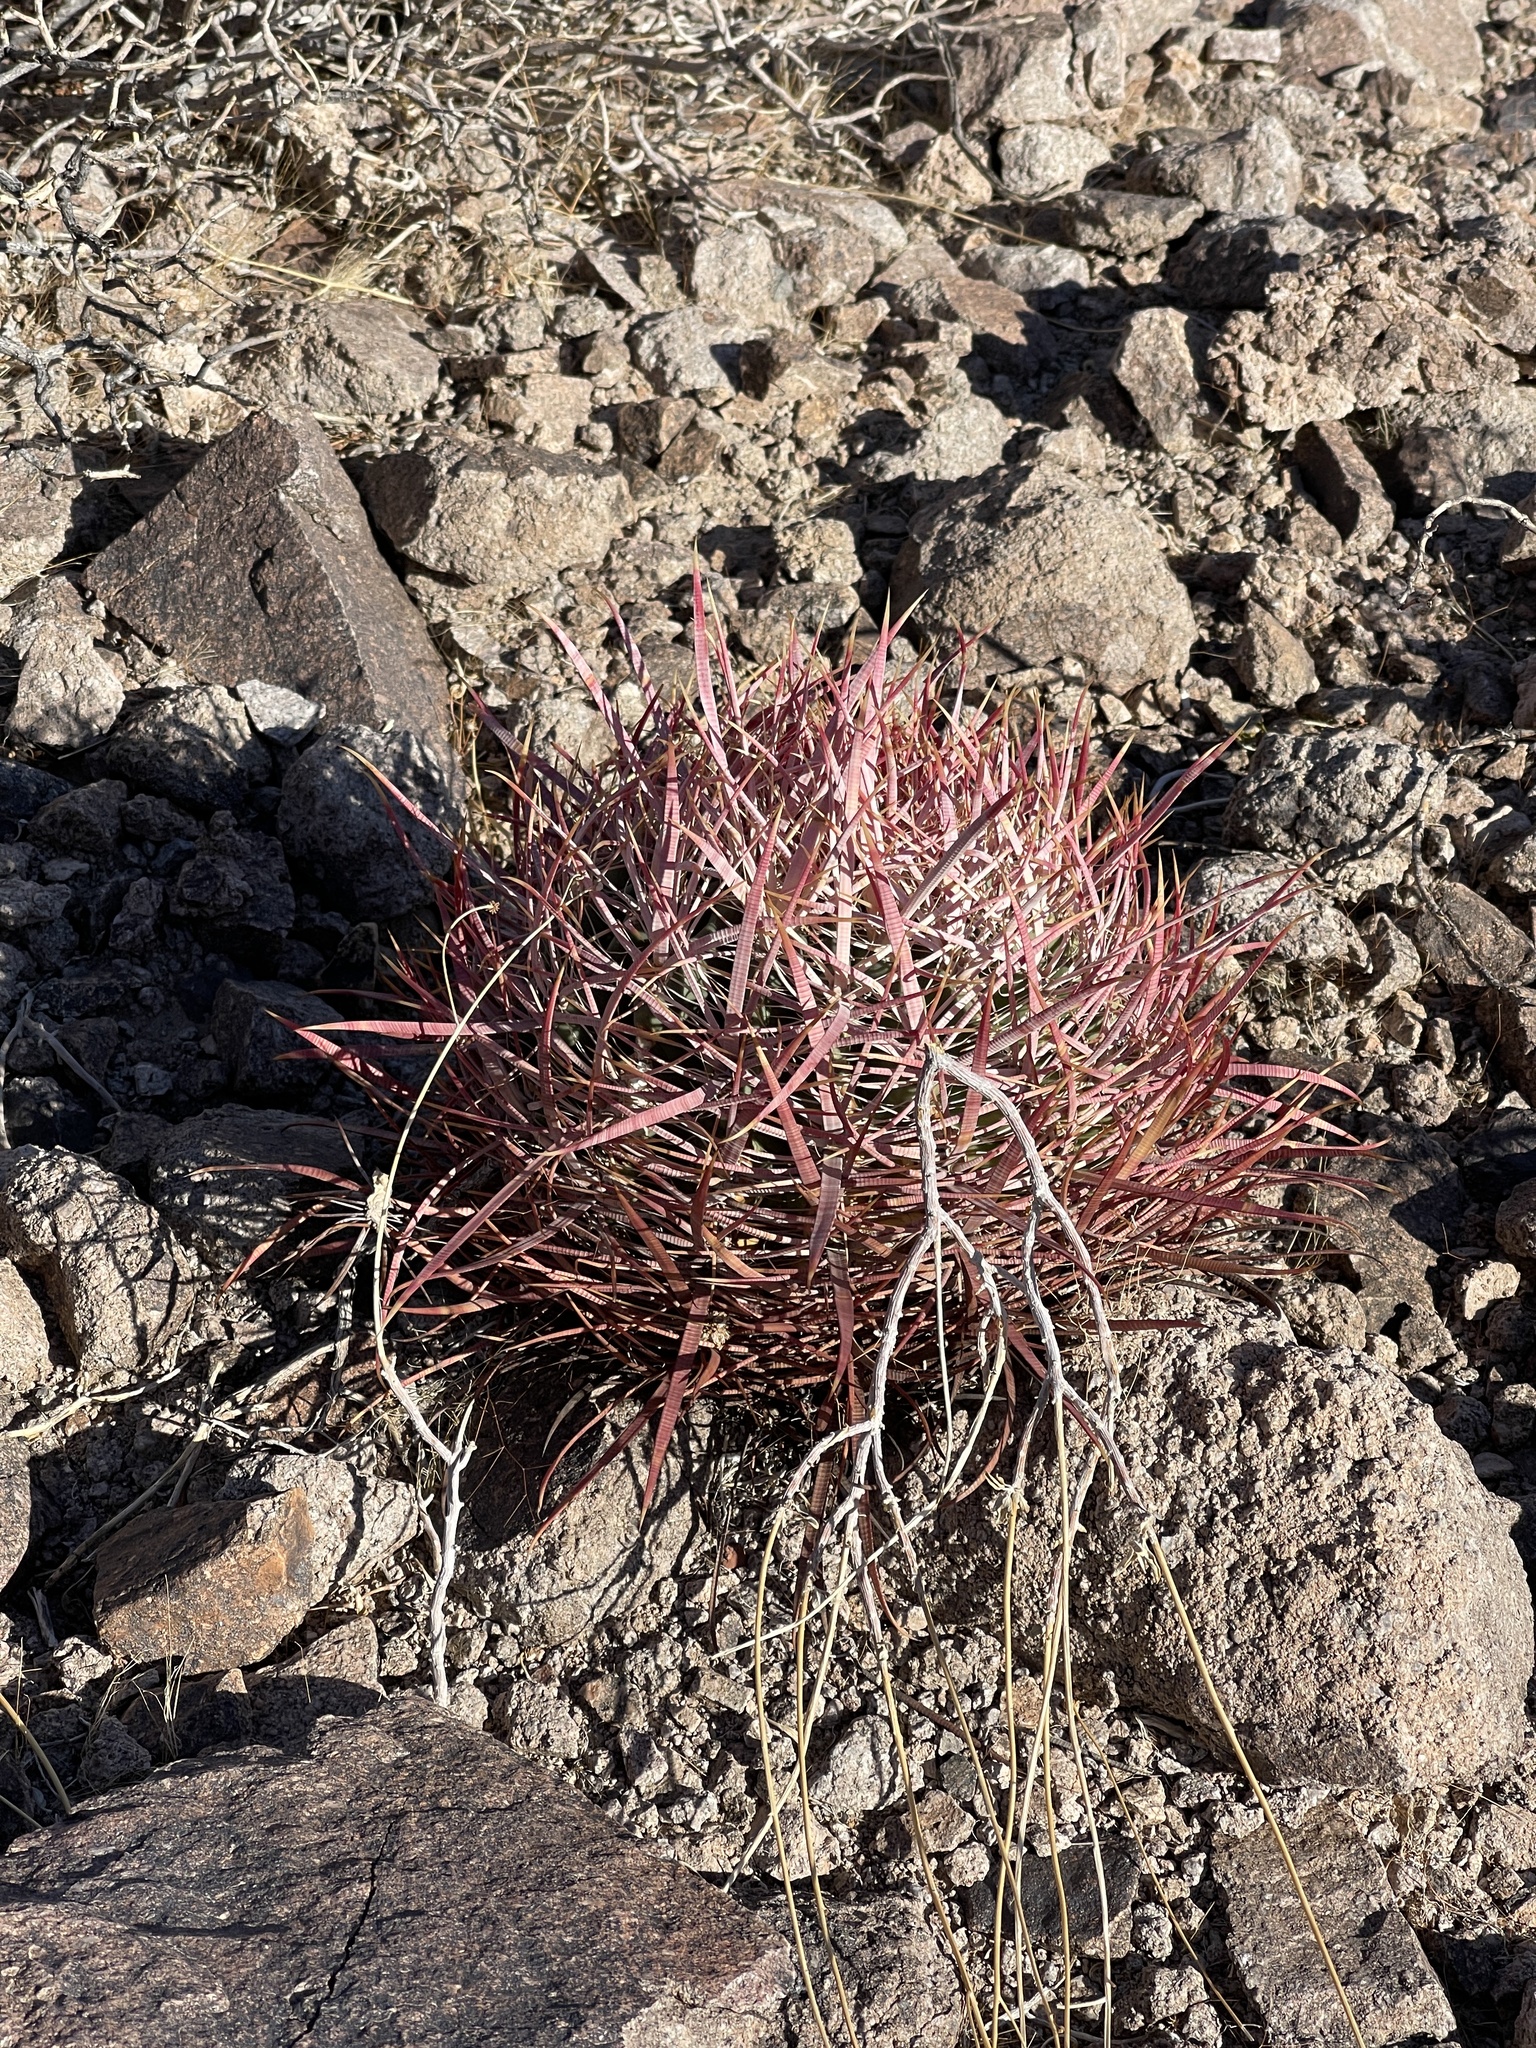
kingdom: Plantae
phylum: Tracheophyta
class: Magnoliopsida
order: Caryophyllales
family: Cactaceae
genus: Ferocactus
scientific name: Ferocactus cylindraceus
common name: California barrel cactus
